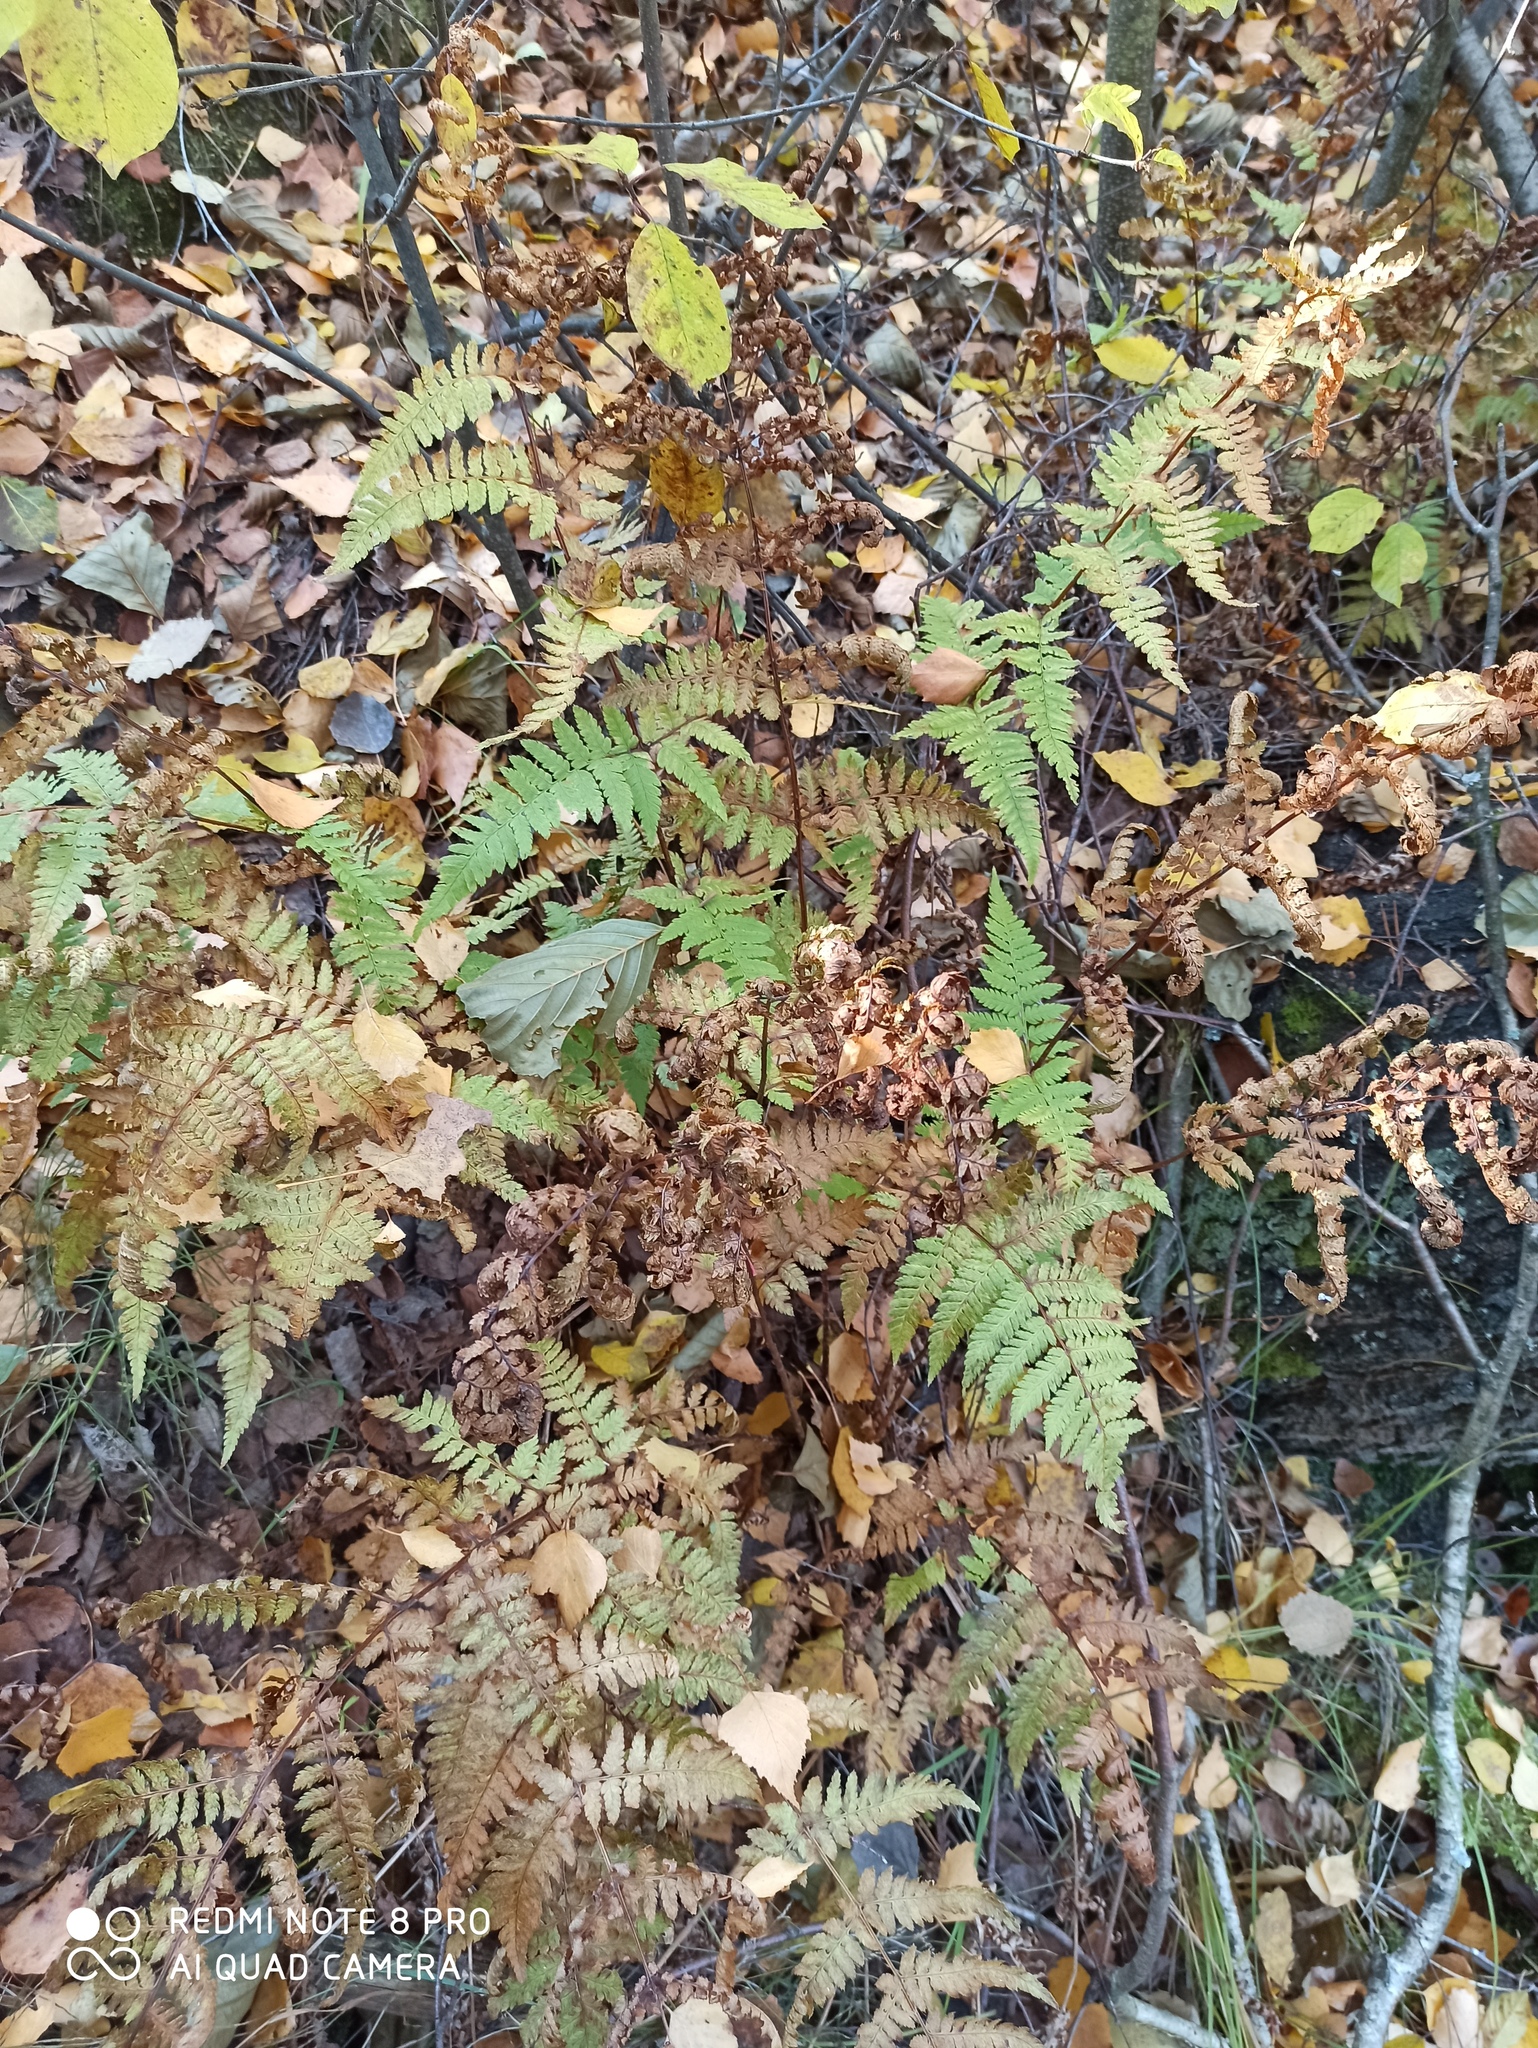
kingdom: Plantae
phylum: Tracheophyta
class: Polypodiopsida
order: Polypodiales
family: Dryopteridaceae
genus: Dryopteris
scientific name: Dryopteris carthusiana
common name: Narrow buckler-fern
